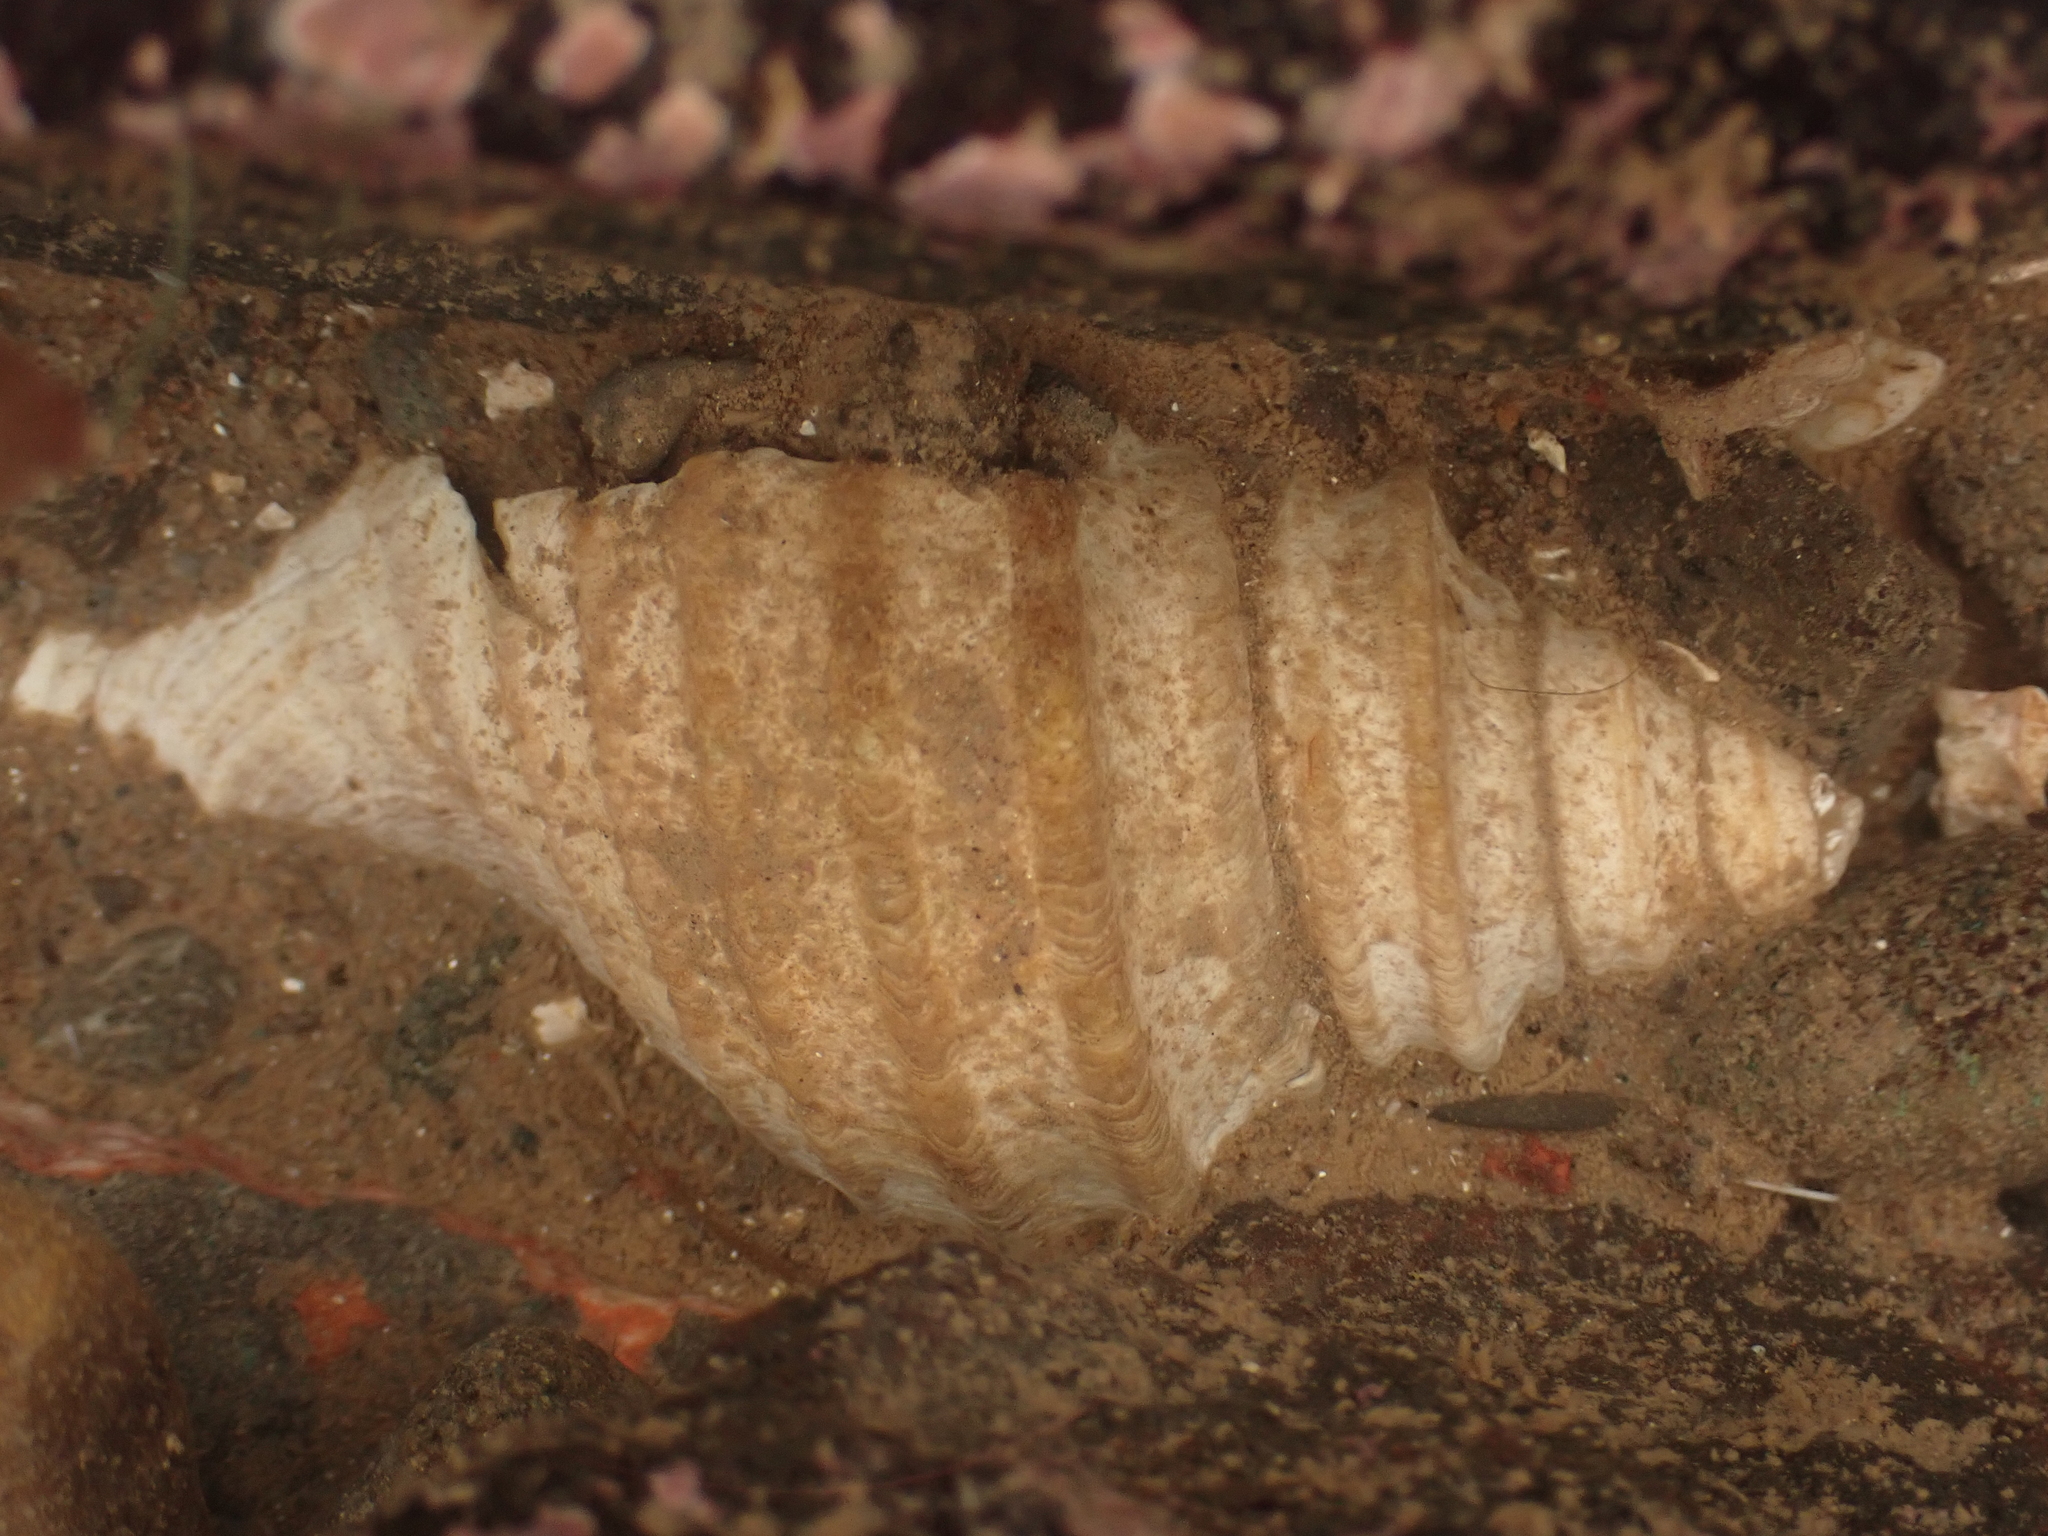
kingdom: Animalia
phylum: Mollusca
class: Gastropoda
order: Neogastropoda
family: Buccinidae
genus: Neptunea
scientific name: Neptunea decemcostata
